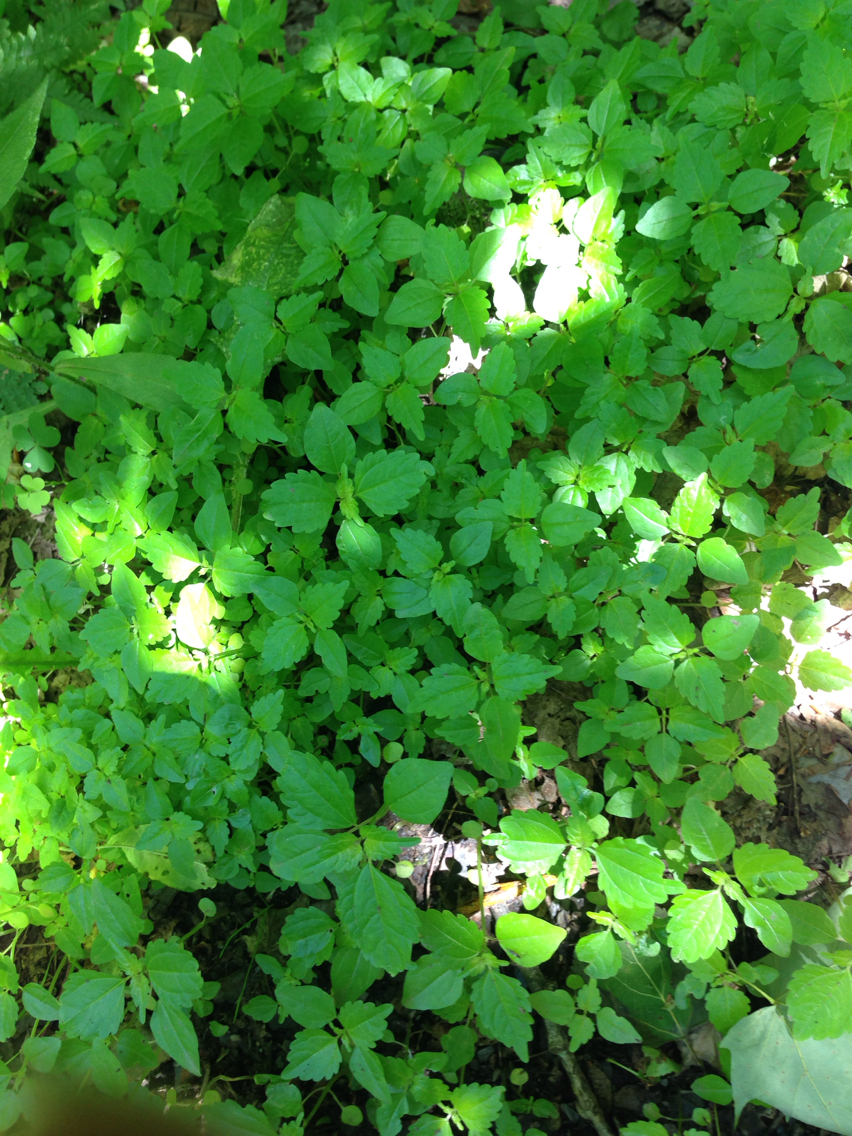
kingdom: Plantae
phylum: Tracheophyta
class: Magnoliopsida
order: Rosales
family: Urticaceae
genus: Pilea
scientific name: Pilea pumila
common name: Clearweed
